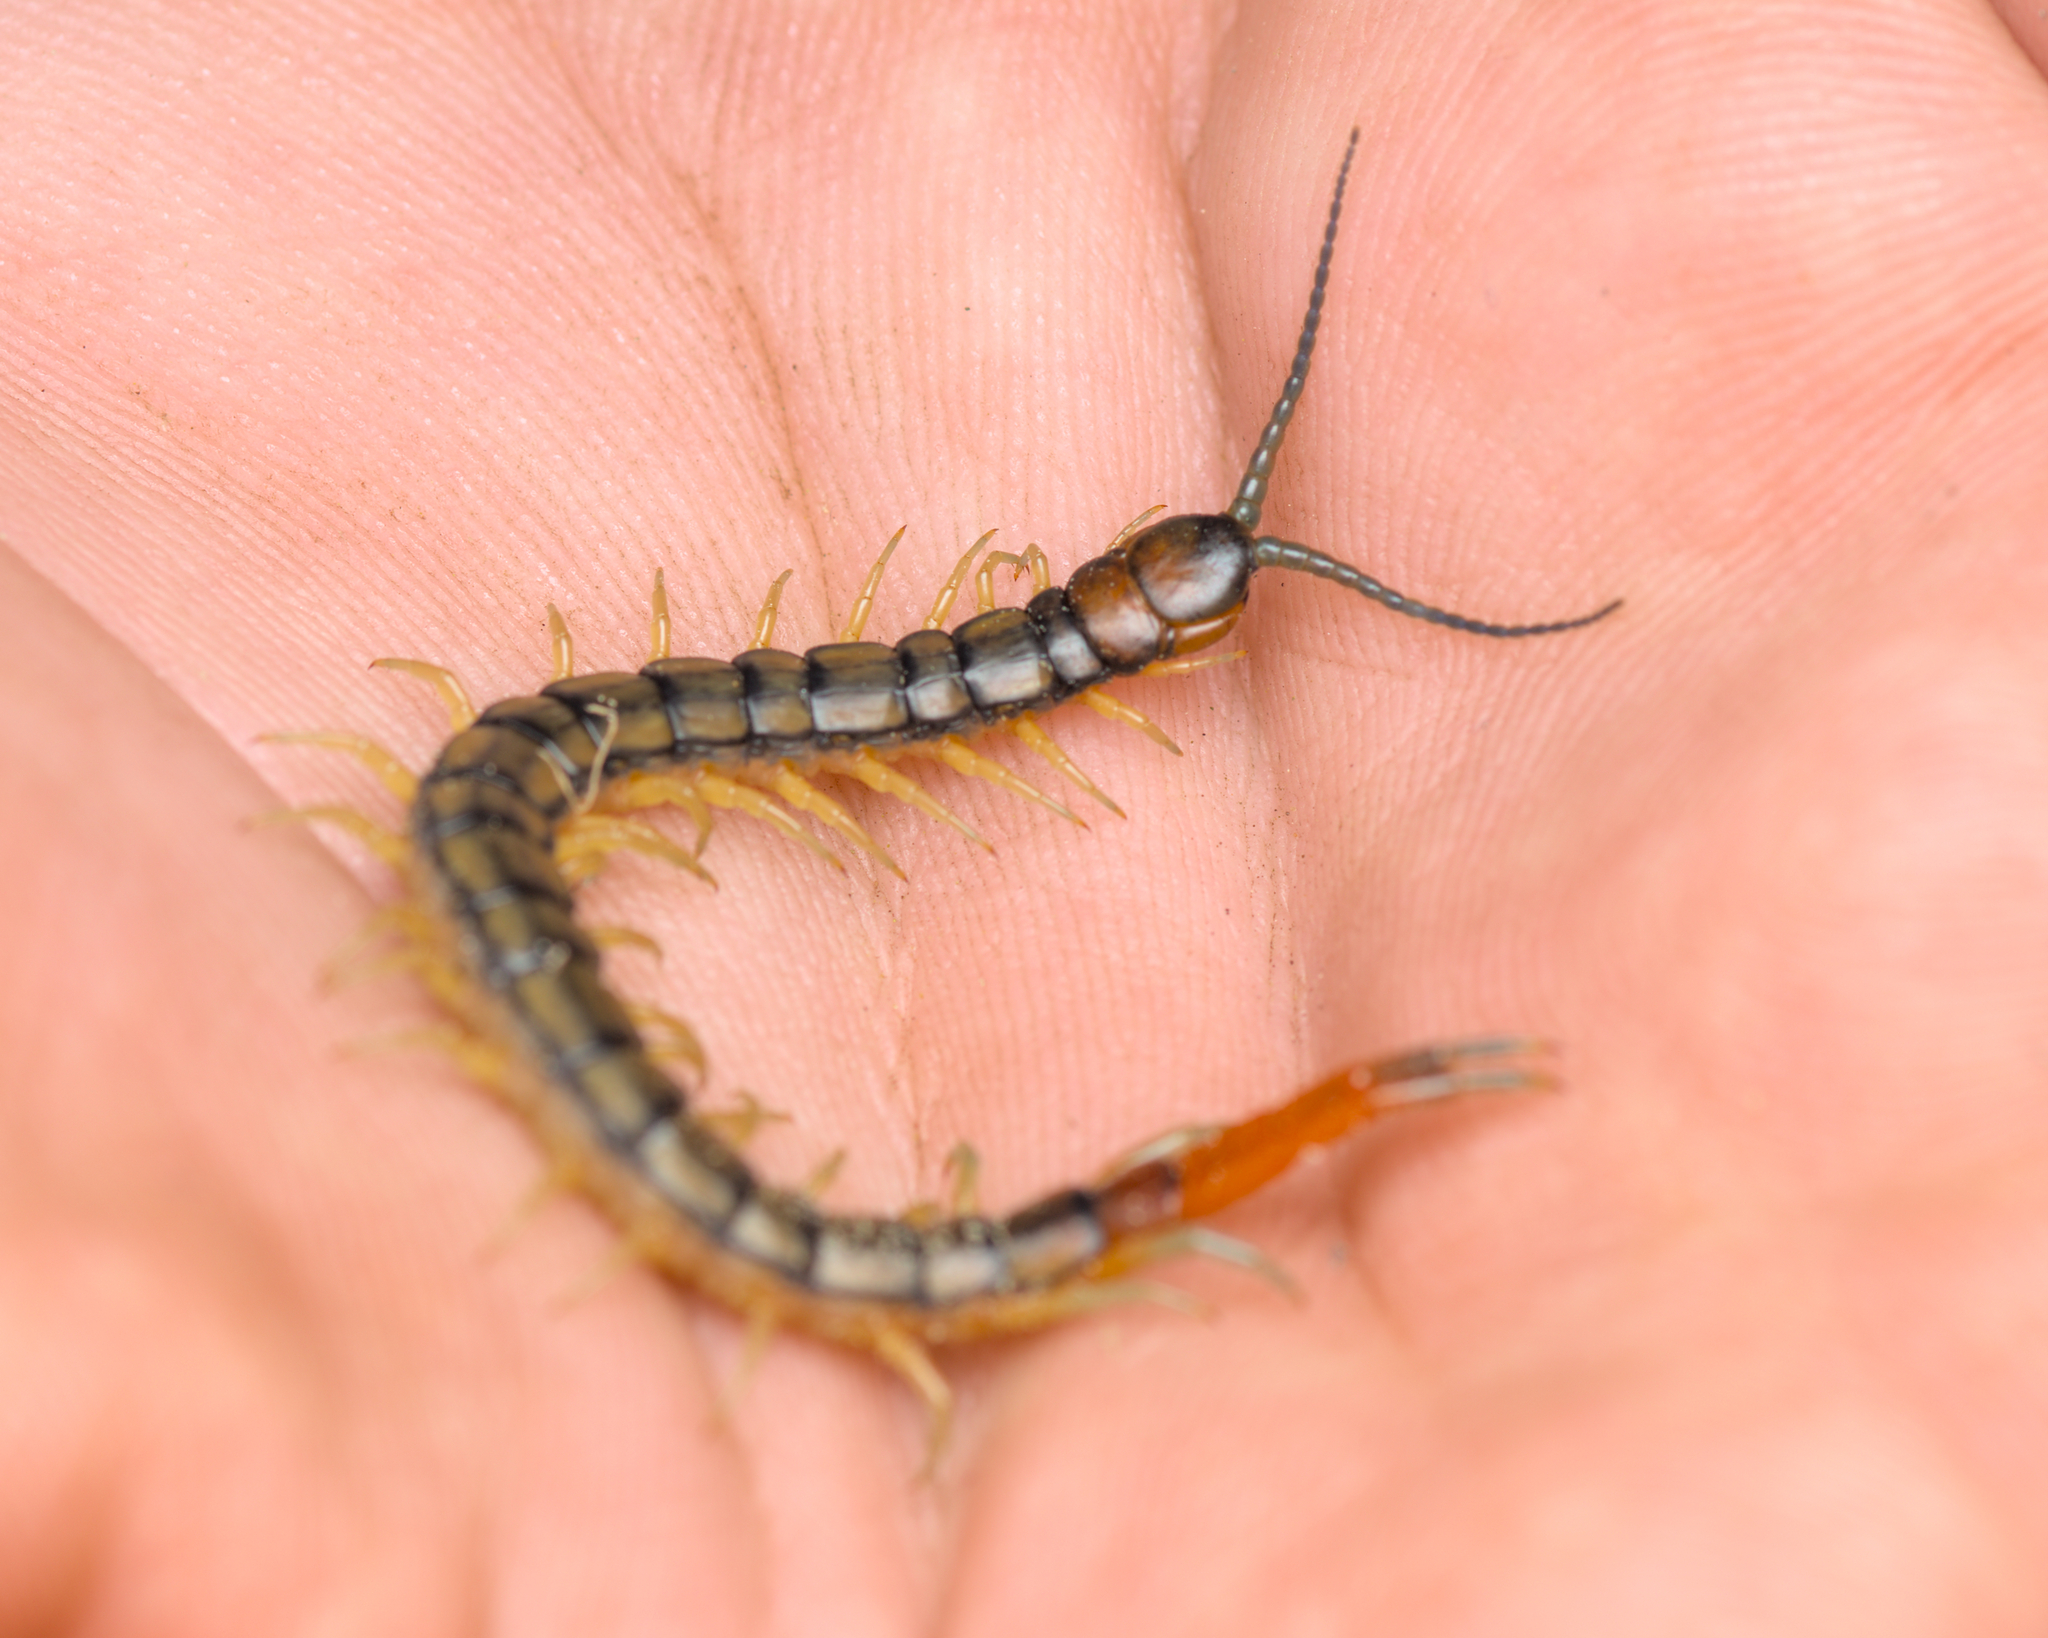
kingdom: Animalia
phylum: Arthropoda
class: Chilopoda
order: Scolopendromorpha
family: Scolopendridae
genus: Scolopendra
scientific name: Scolopendra cingulata
